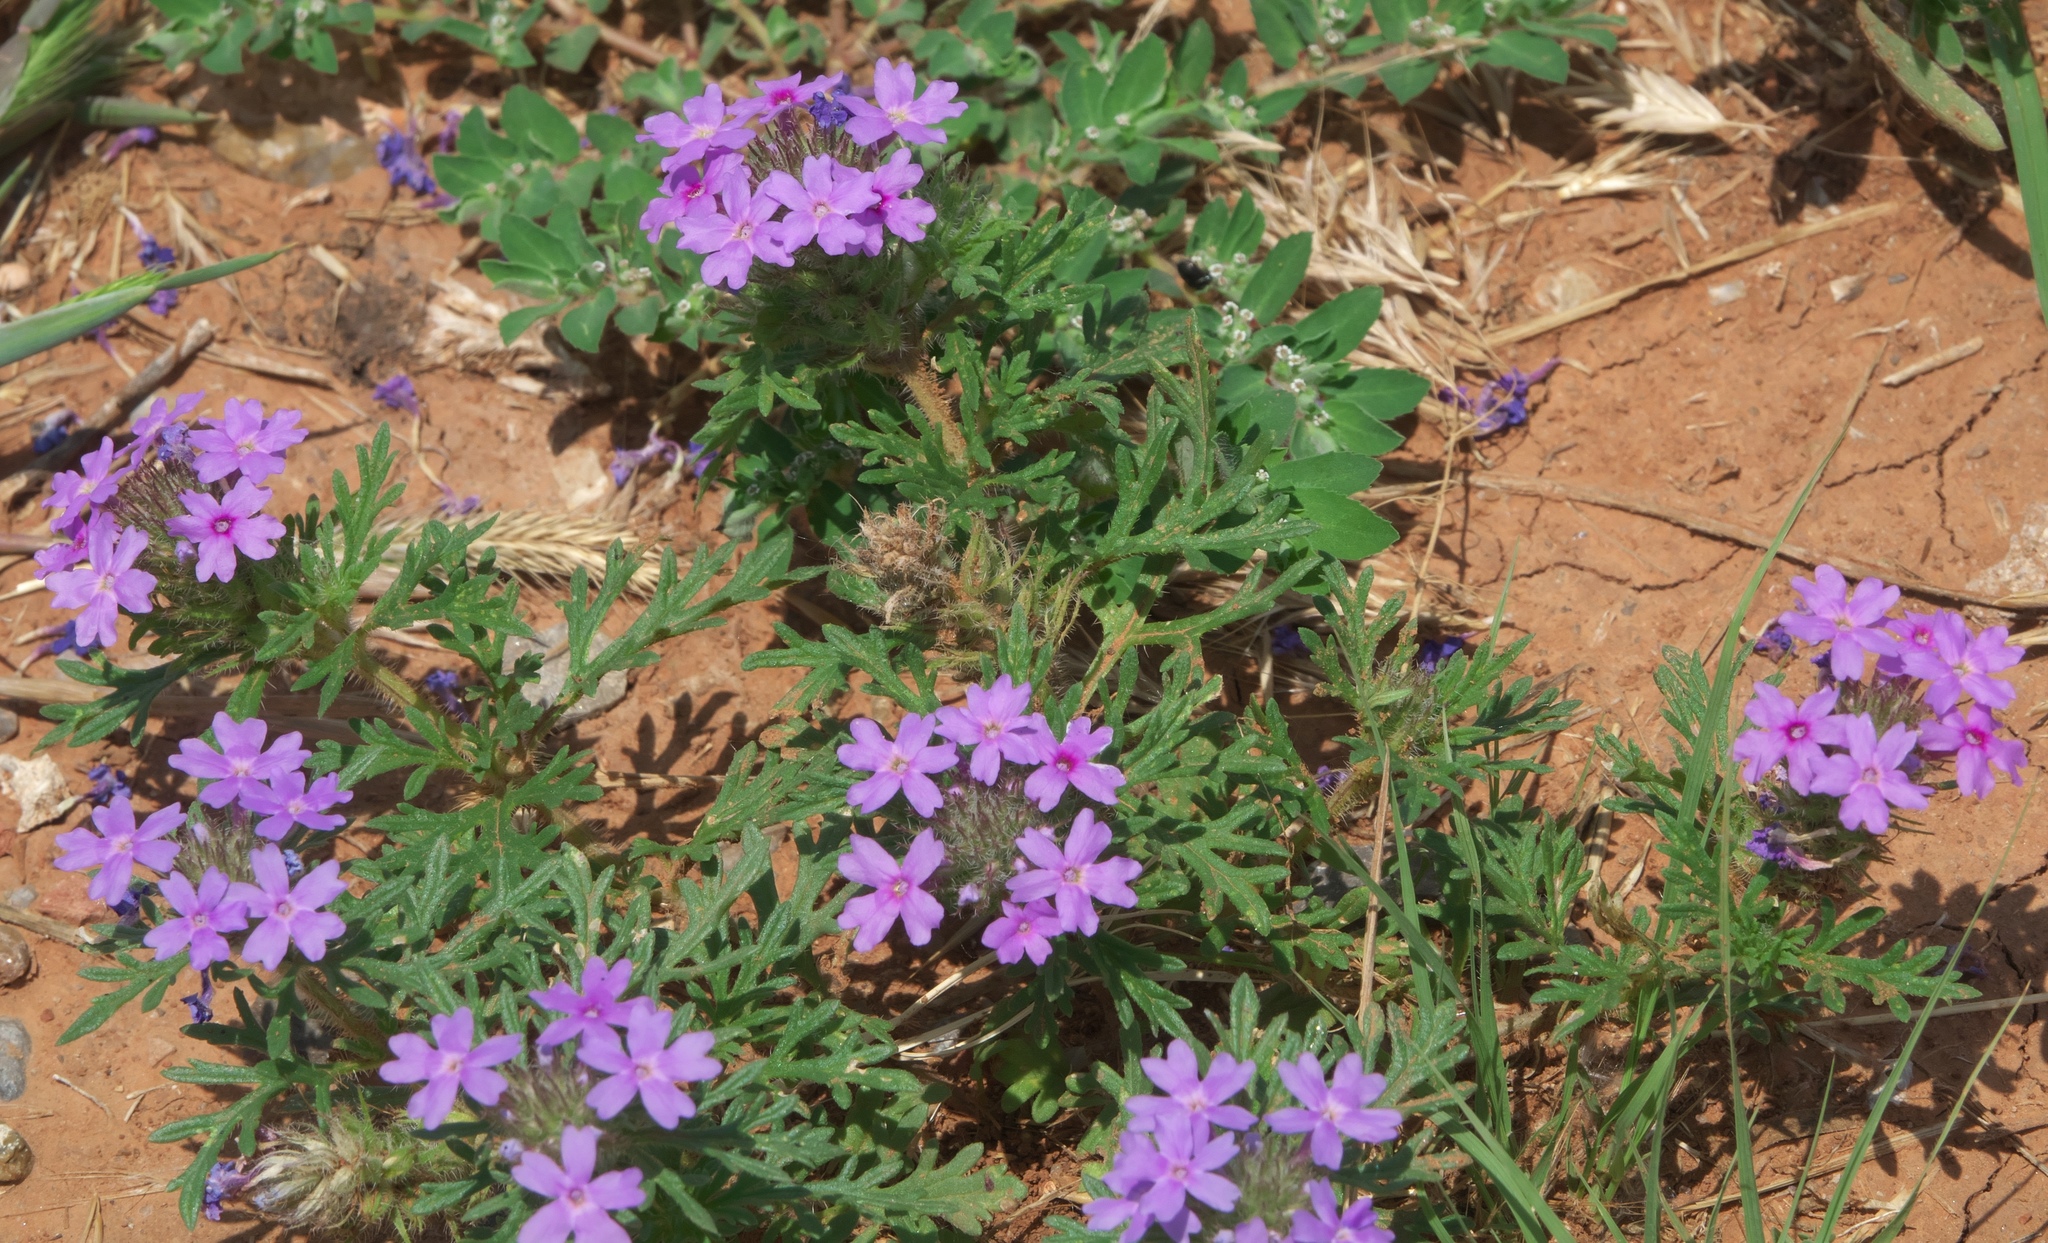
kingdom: Plantae
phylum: Tracheophyta
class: Magnoliopsida
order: Lamiales
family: Verbenaceae
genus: Verbena
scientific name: Verbena bipinnatifida
